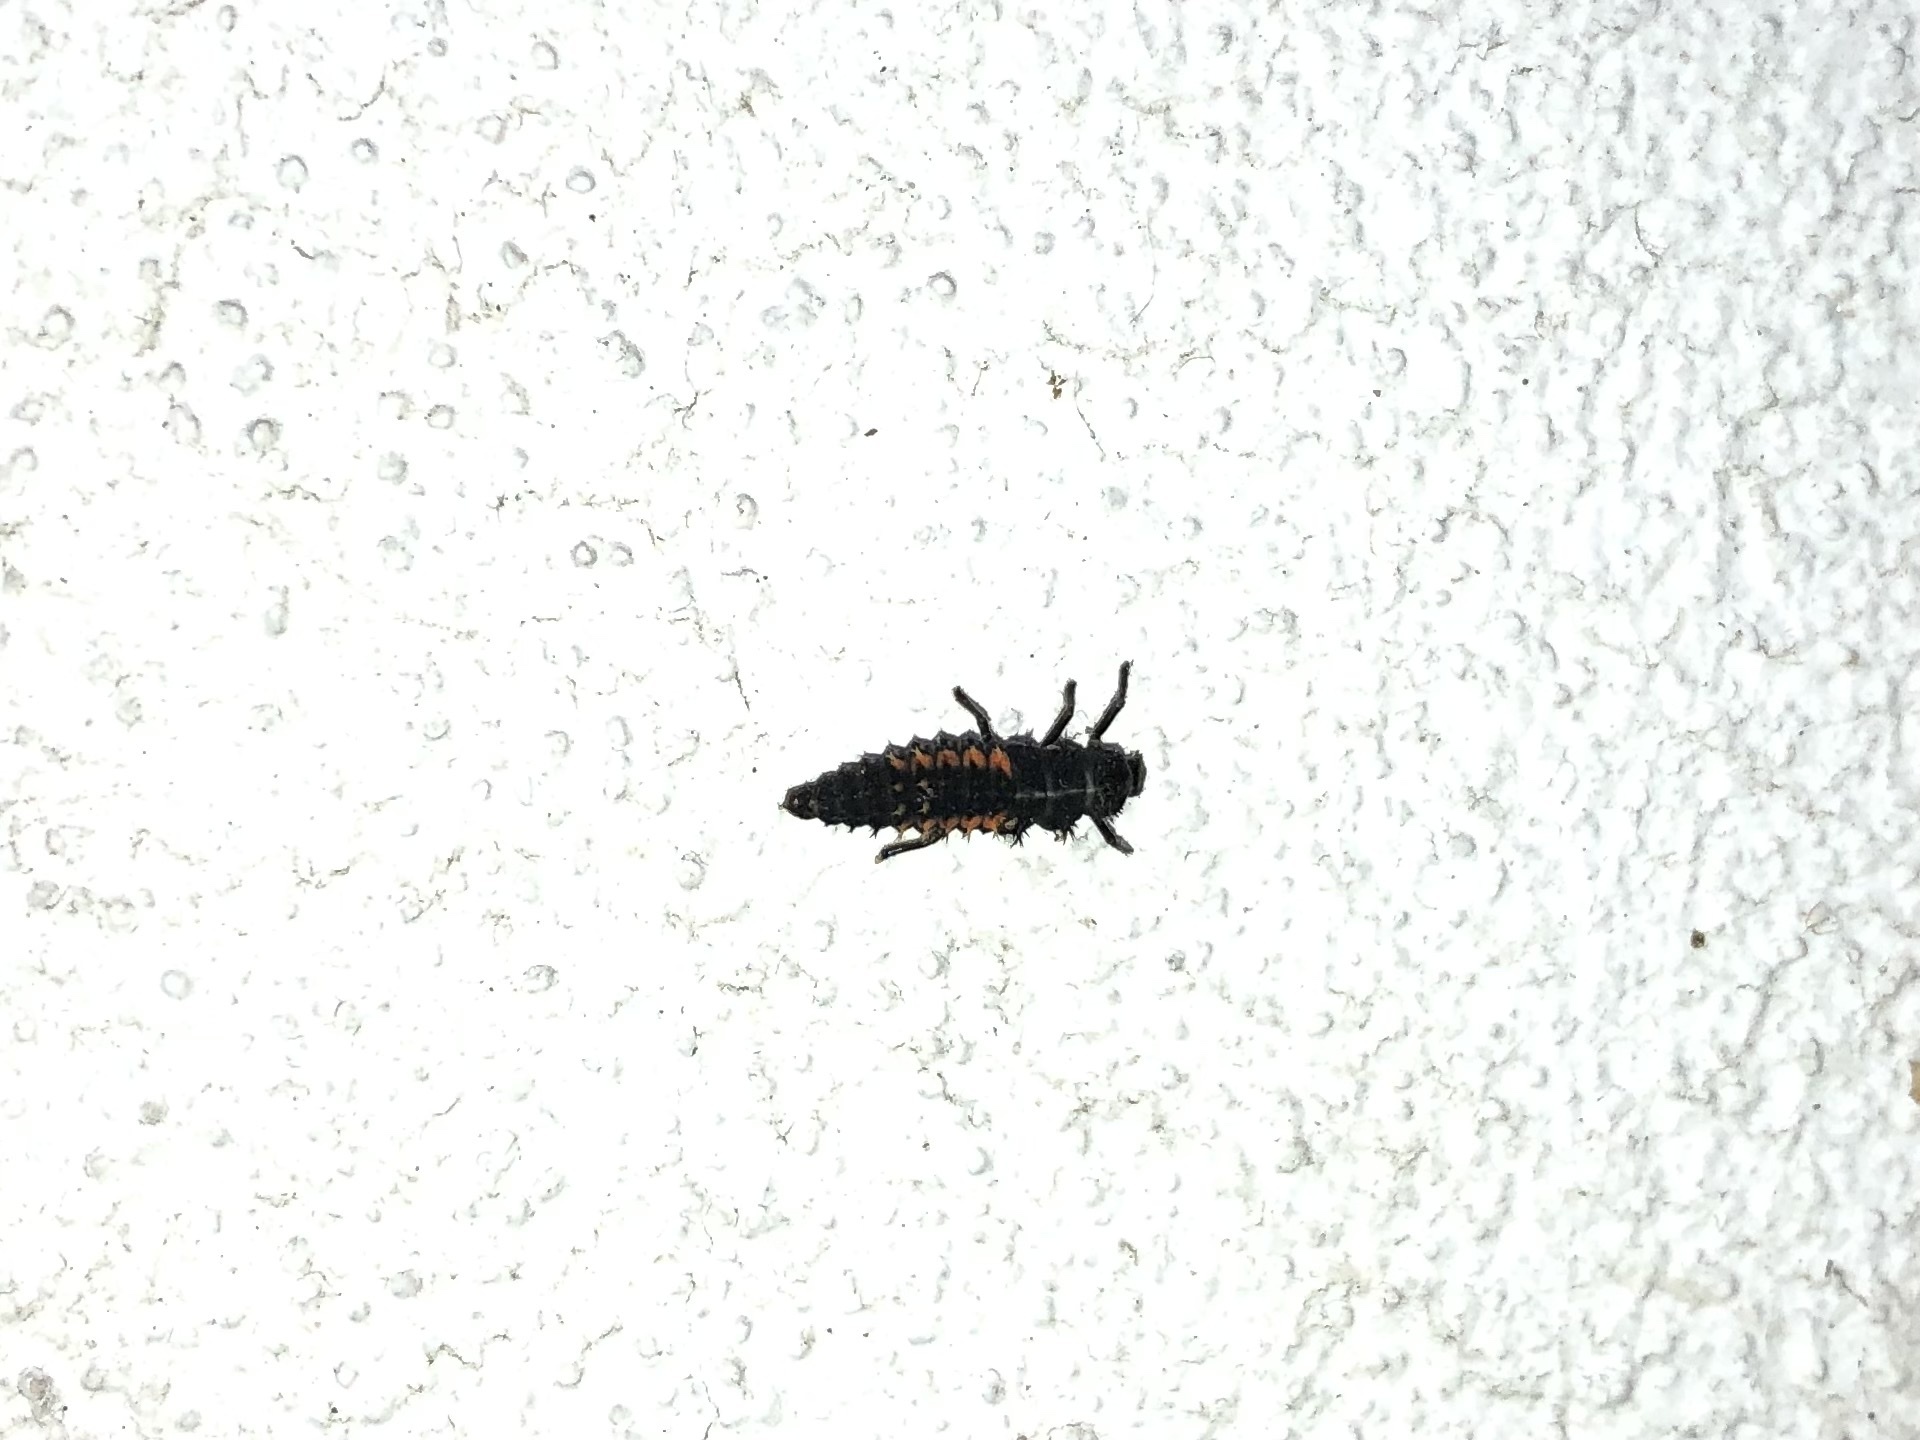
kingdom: Animalia
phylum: Arthropoda
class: Insecta
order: Coleoptera
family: Coccinellidae
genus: Harmonia
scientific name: Harmonia axyridis
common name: Harlequin ladybird
